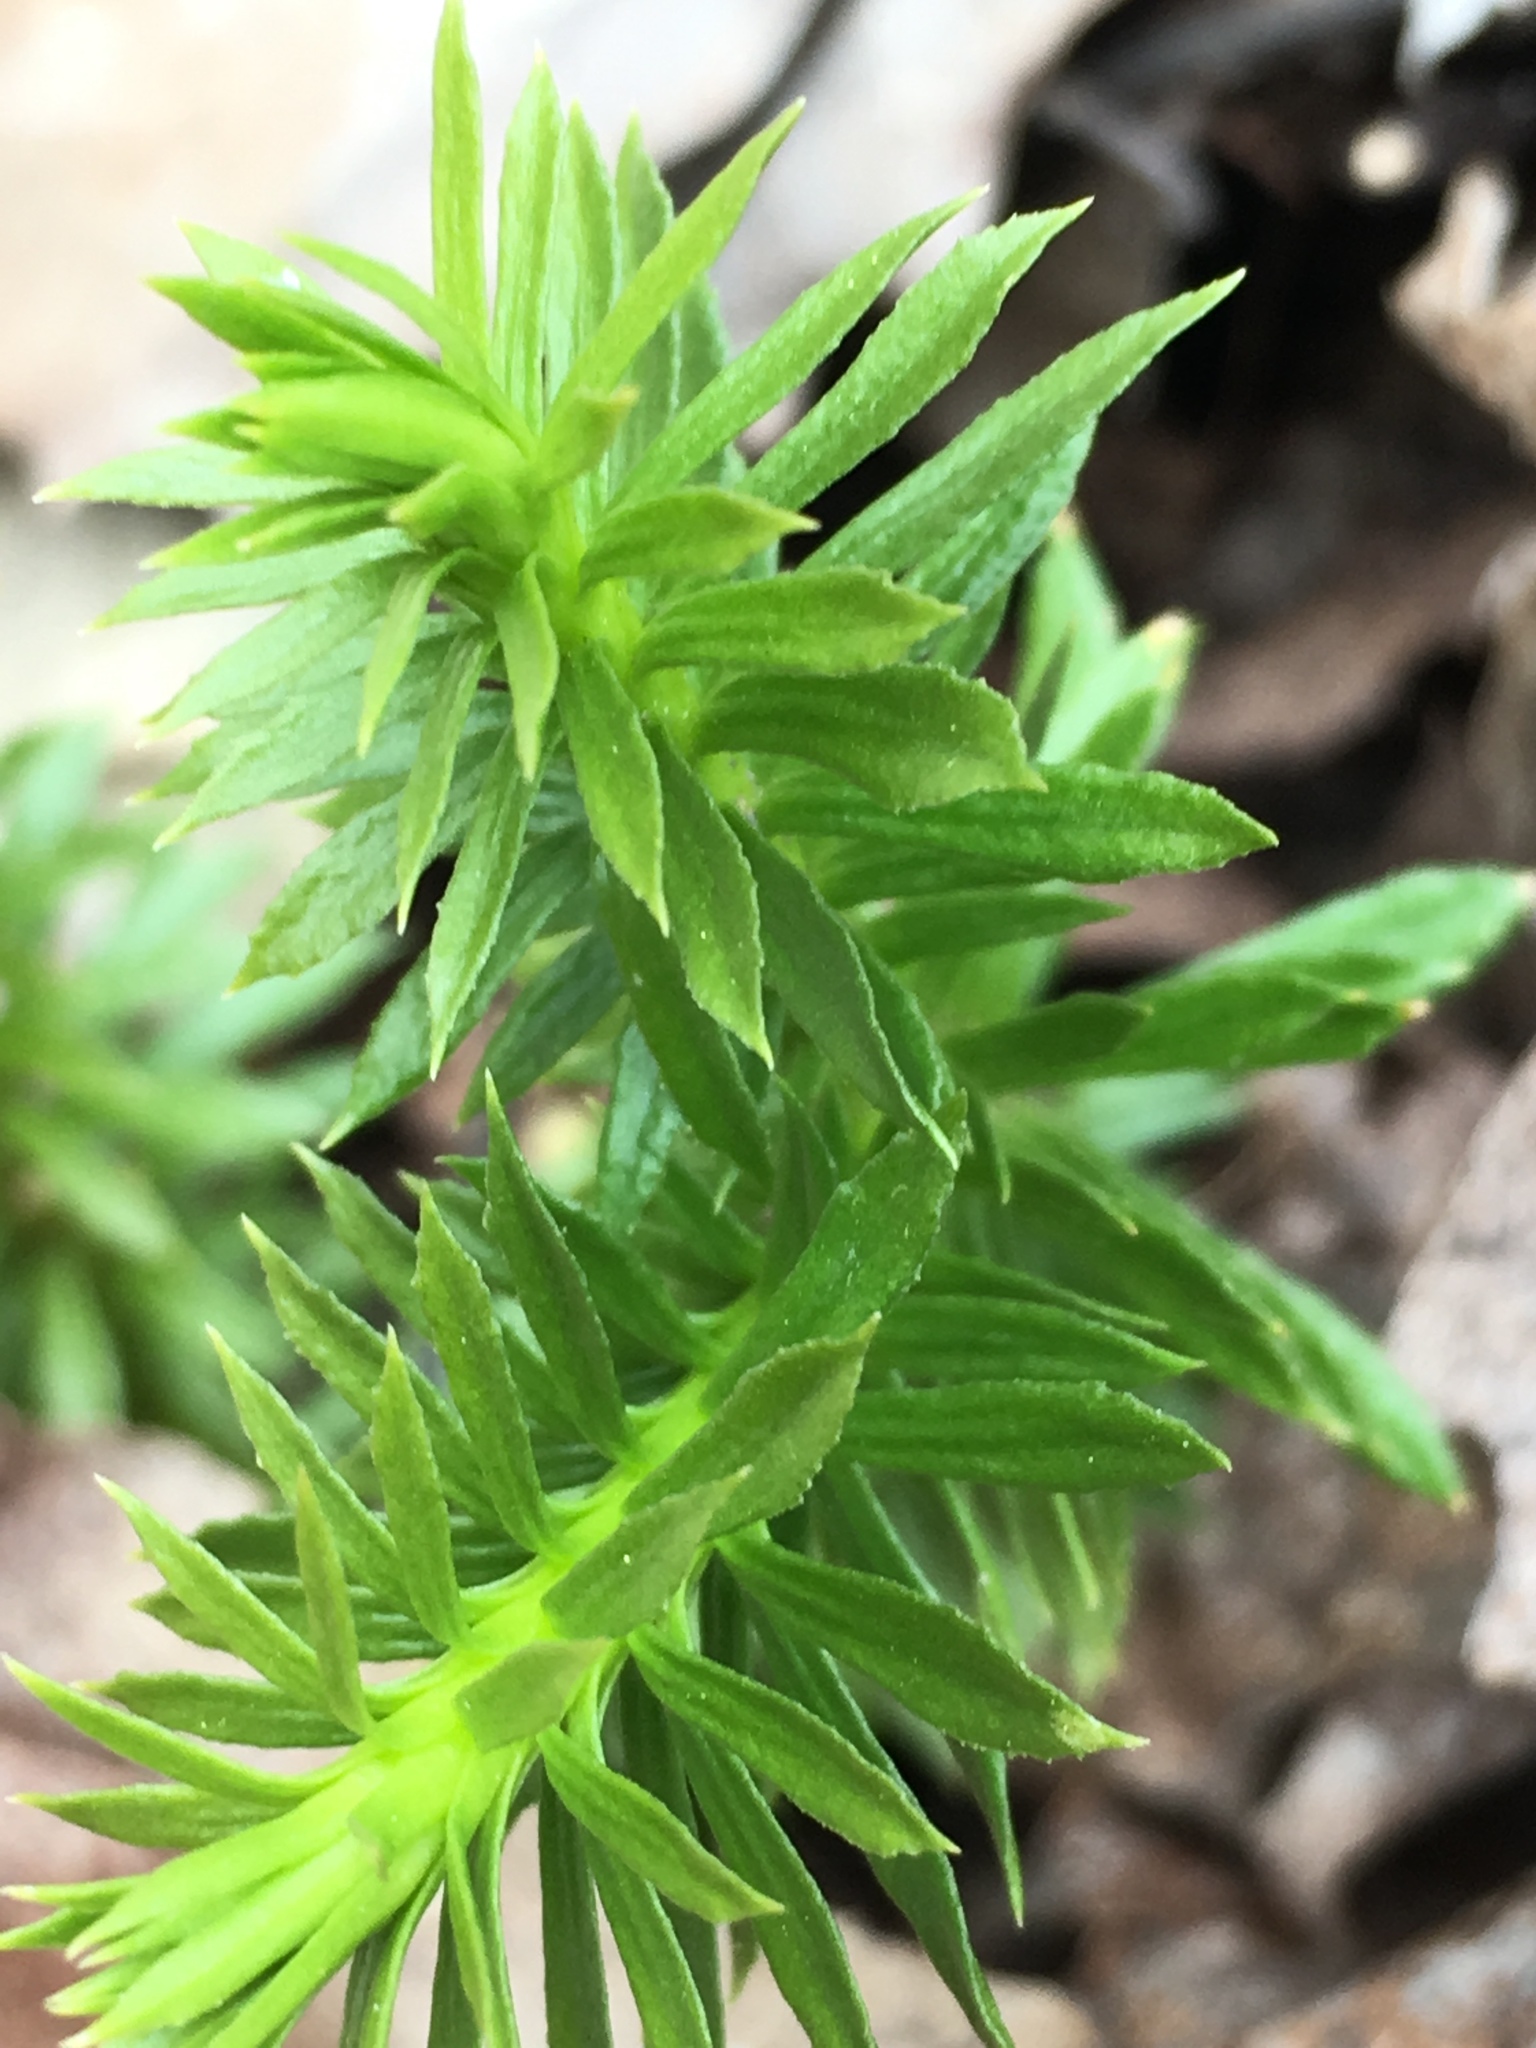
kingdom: Plantae
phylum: Tracheophyta
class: Lycopodiopsida
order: Lycopodiales
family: Lycopodiaceae
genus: Huperzia
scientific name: Huperzia lucidula
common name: Shining clubmoss
